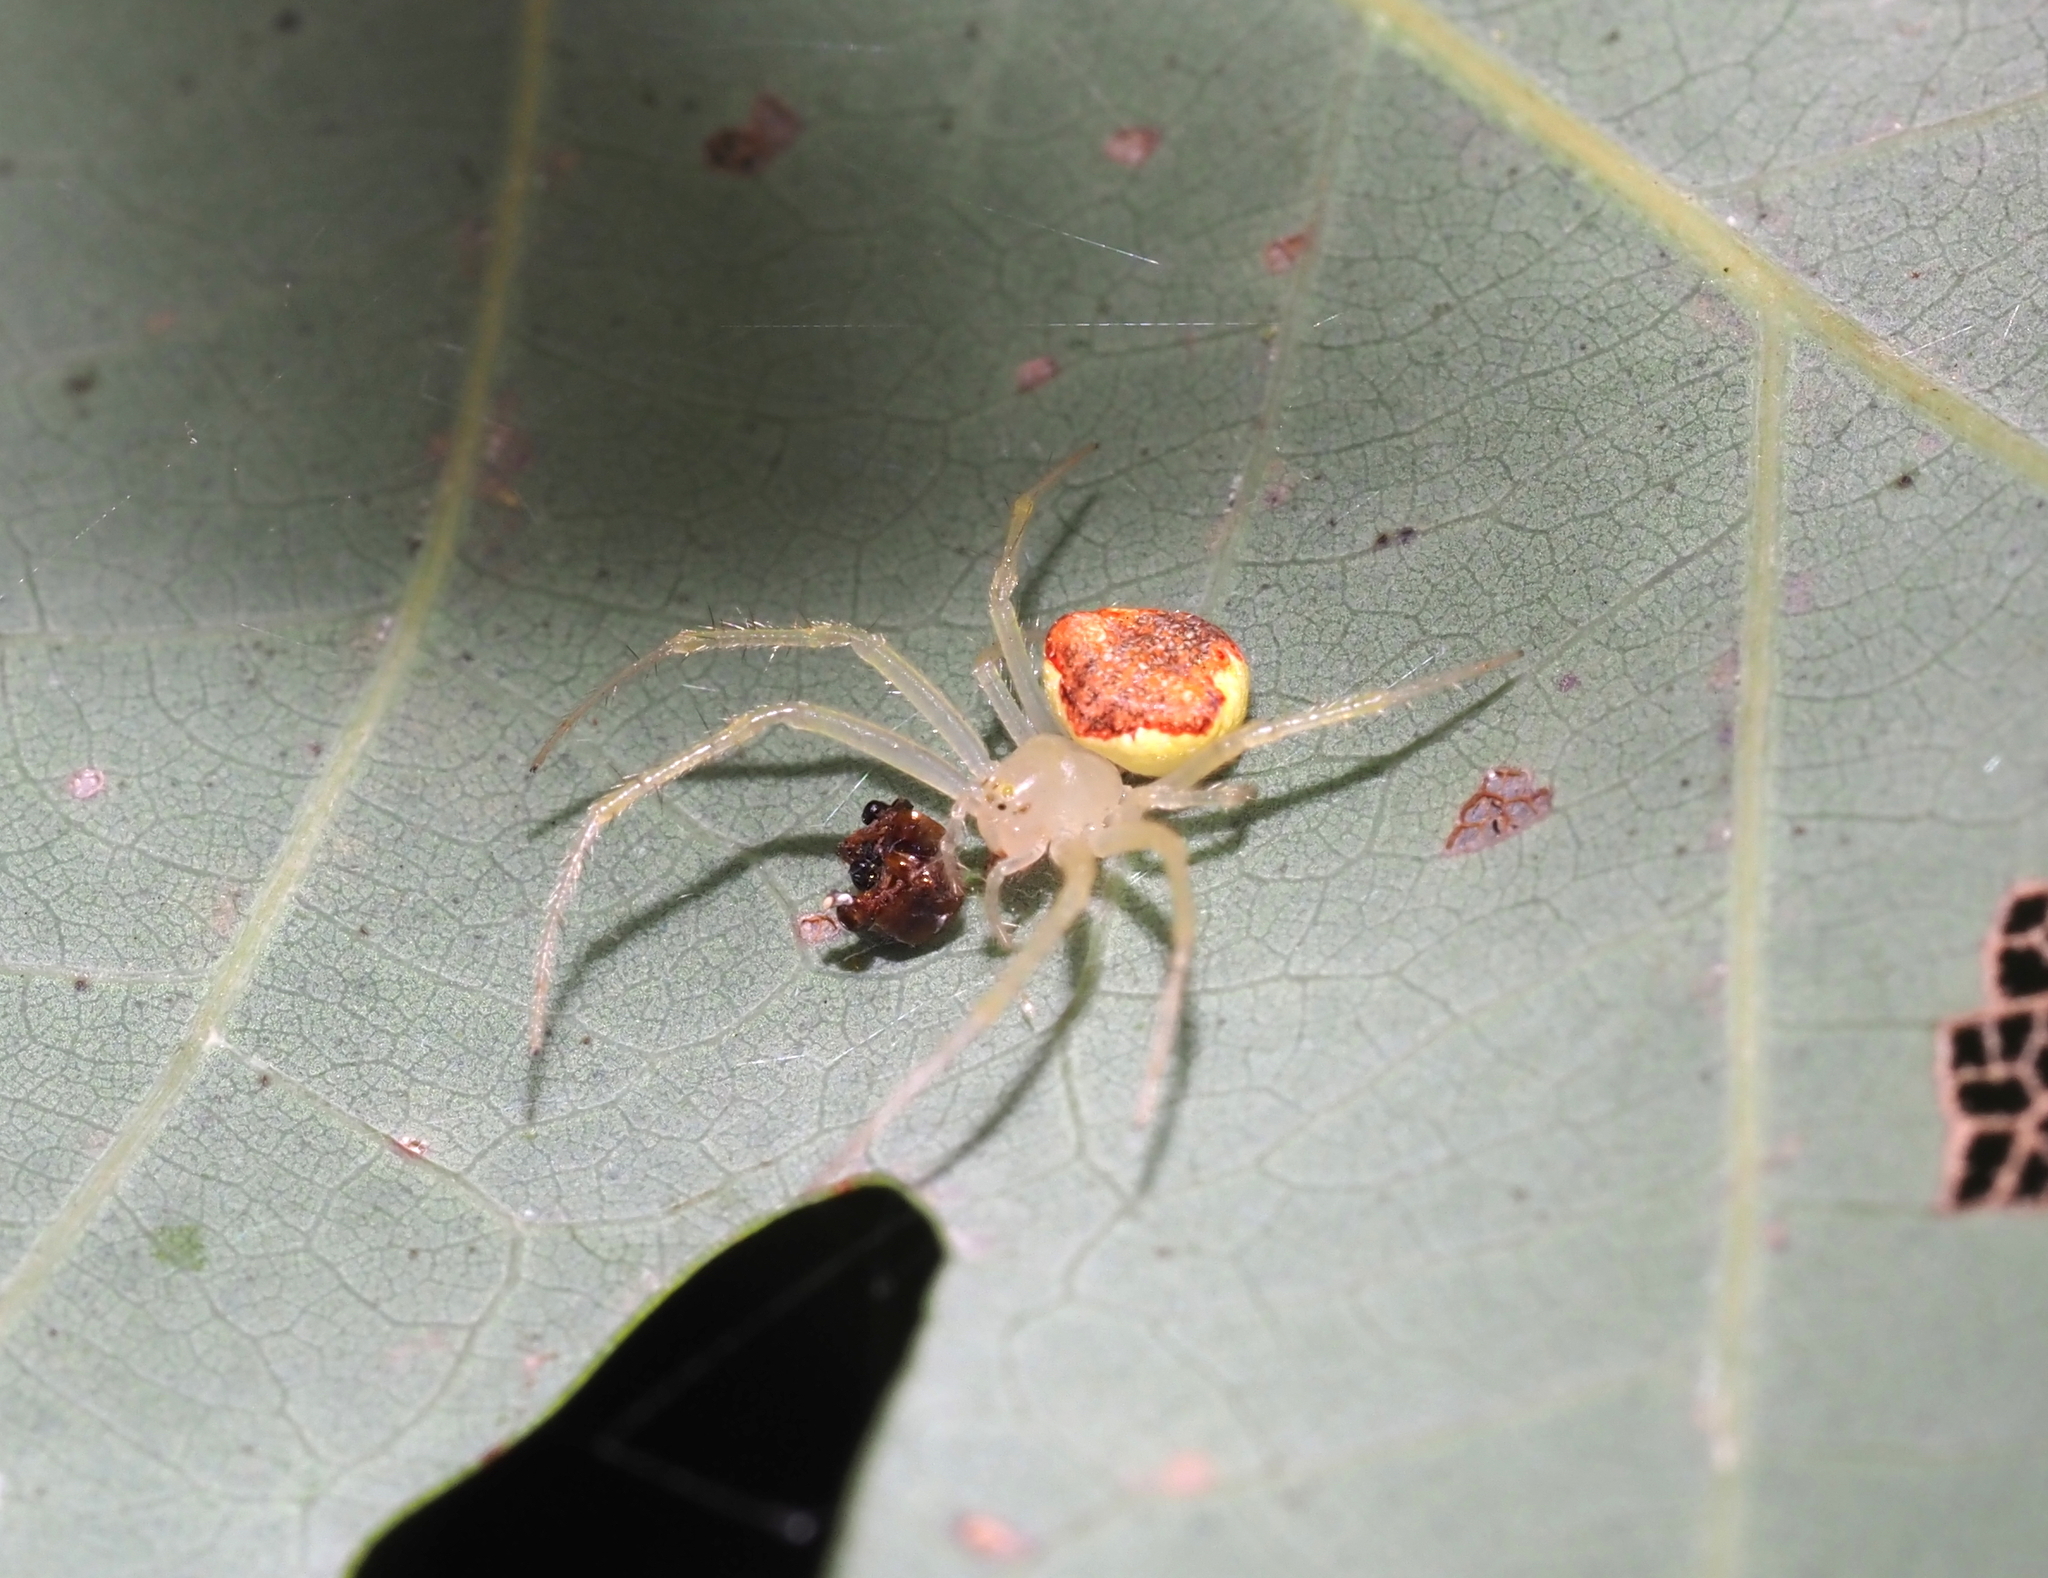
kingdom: Animalia
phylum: Arthropoda
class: Arachnida
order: Araneae
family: Araneidae
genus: Araneus
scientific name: Araneus alboventris
